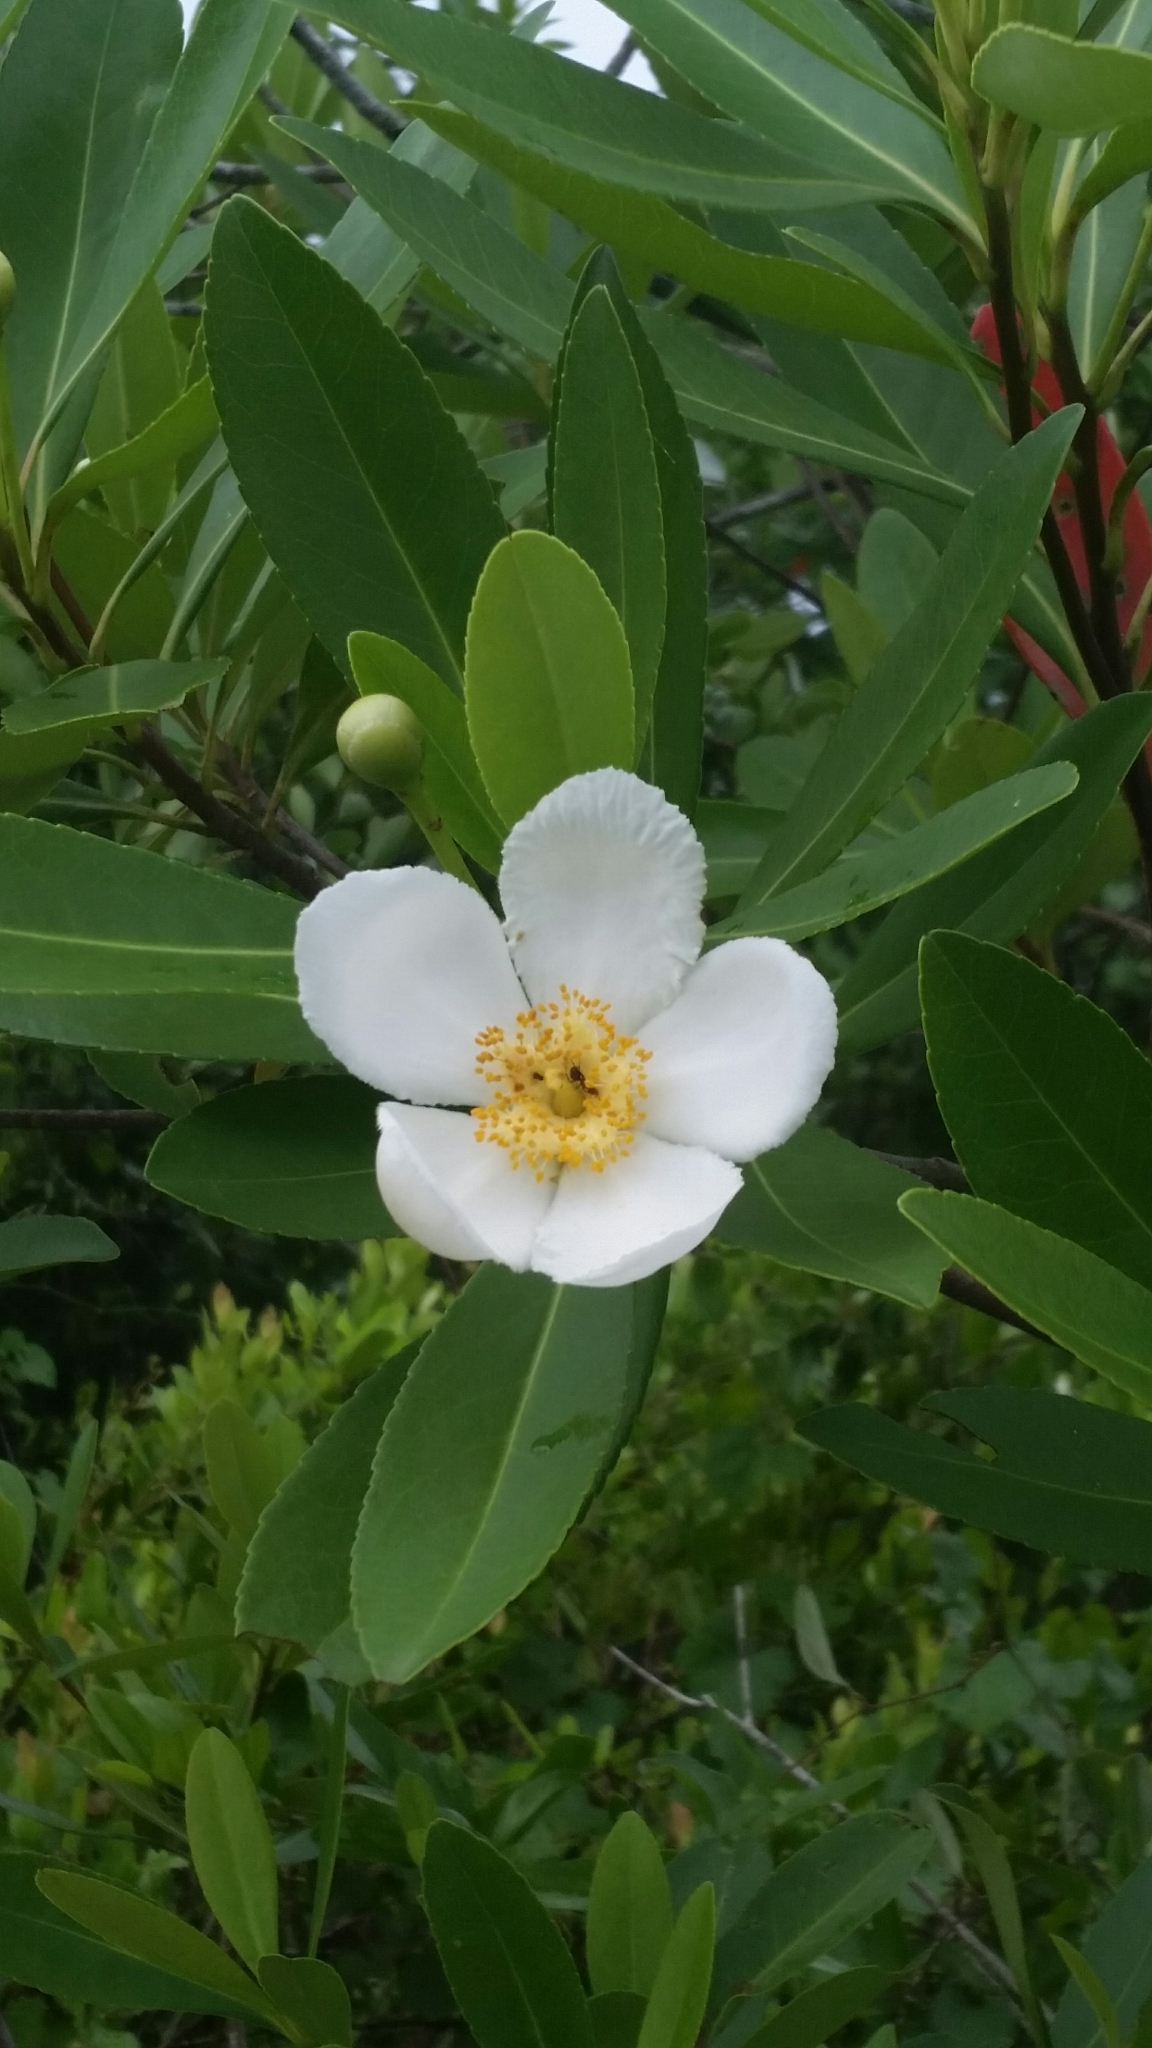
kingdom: Plantae
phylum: Tracheophyta
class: Magnoliopsida
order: Ericales
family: Theaceae
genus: Gordonia
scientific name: Gordonia lasianthus
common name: Loblolly bay
